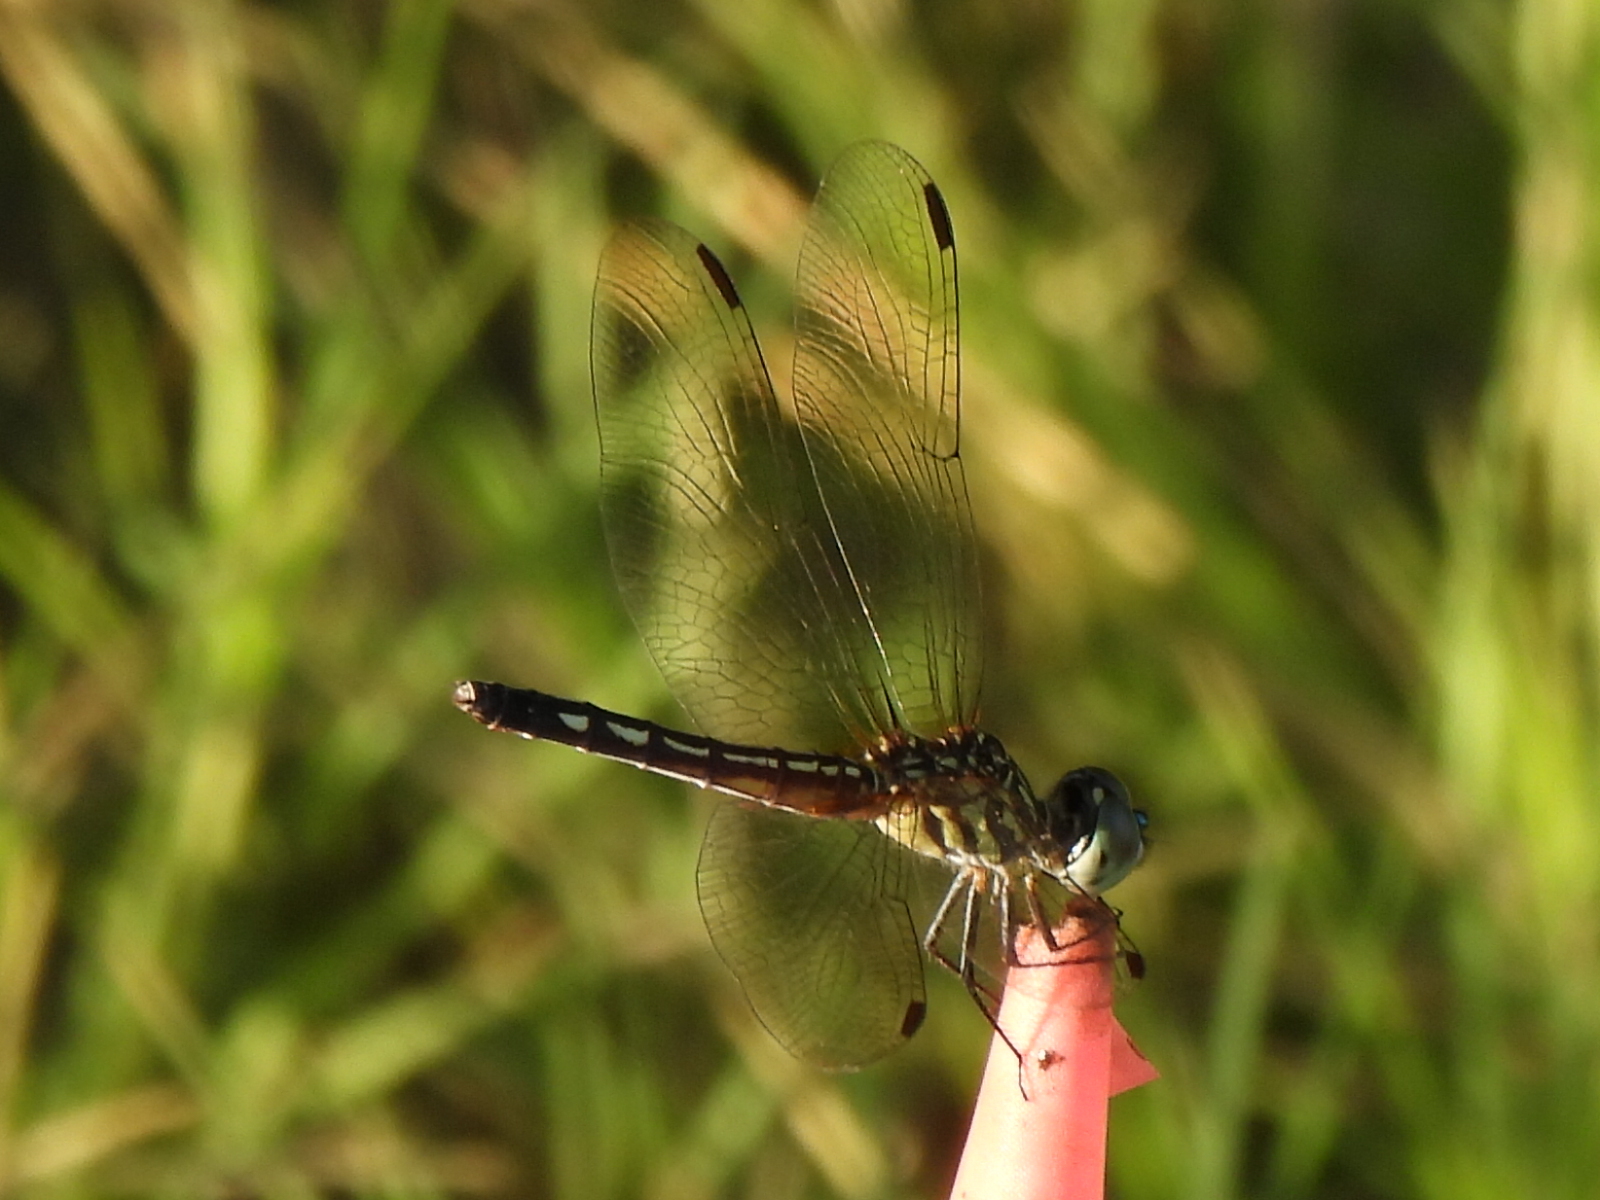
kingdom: Animalia
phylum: Arthropoda
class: Insecta
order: Odonata
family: Libellulidae
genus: Pachydiplax
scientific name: Pachydiplax longipennis
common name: Blue dasher
